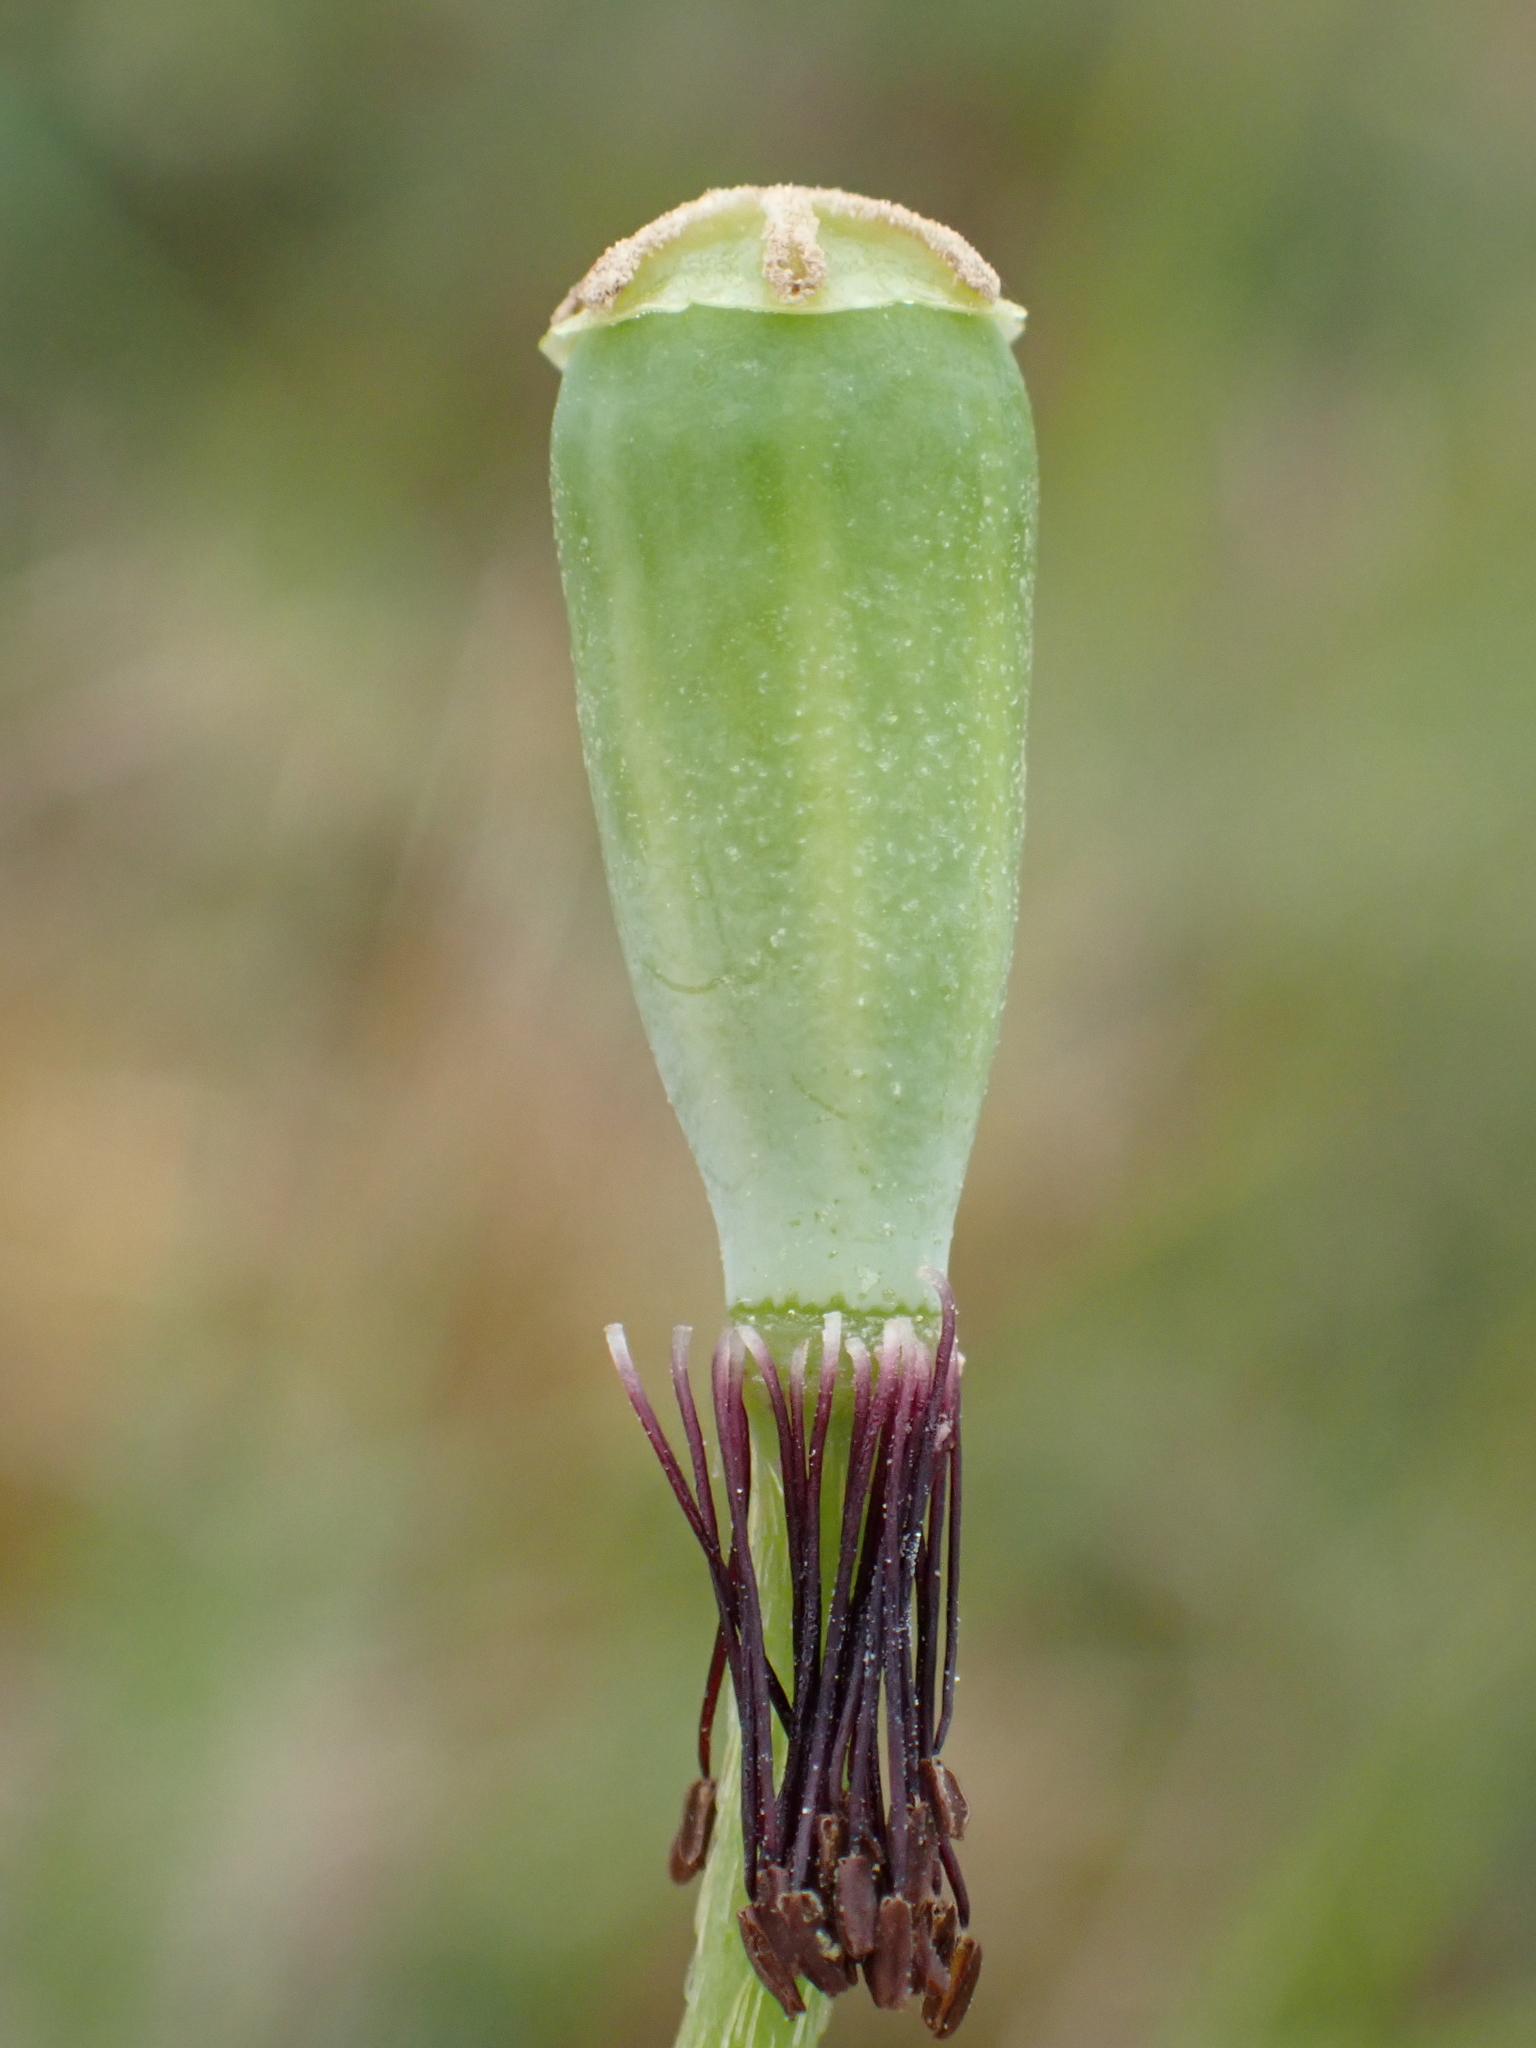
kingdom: Plantae
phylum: Tracheophyta
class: Magnoliopsida
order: Ranunculales
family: Papaveraceae
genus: Papaver
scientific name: Papaver dubium
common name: Long-headed poppy
